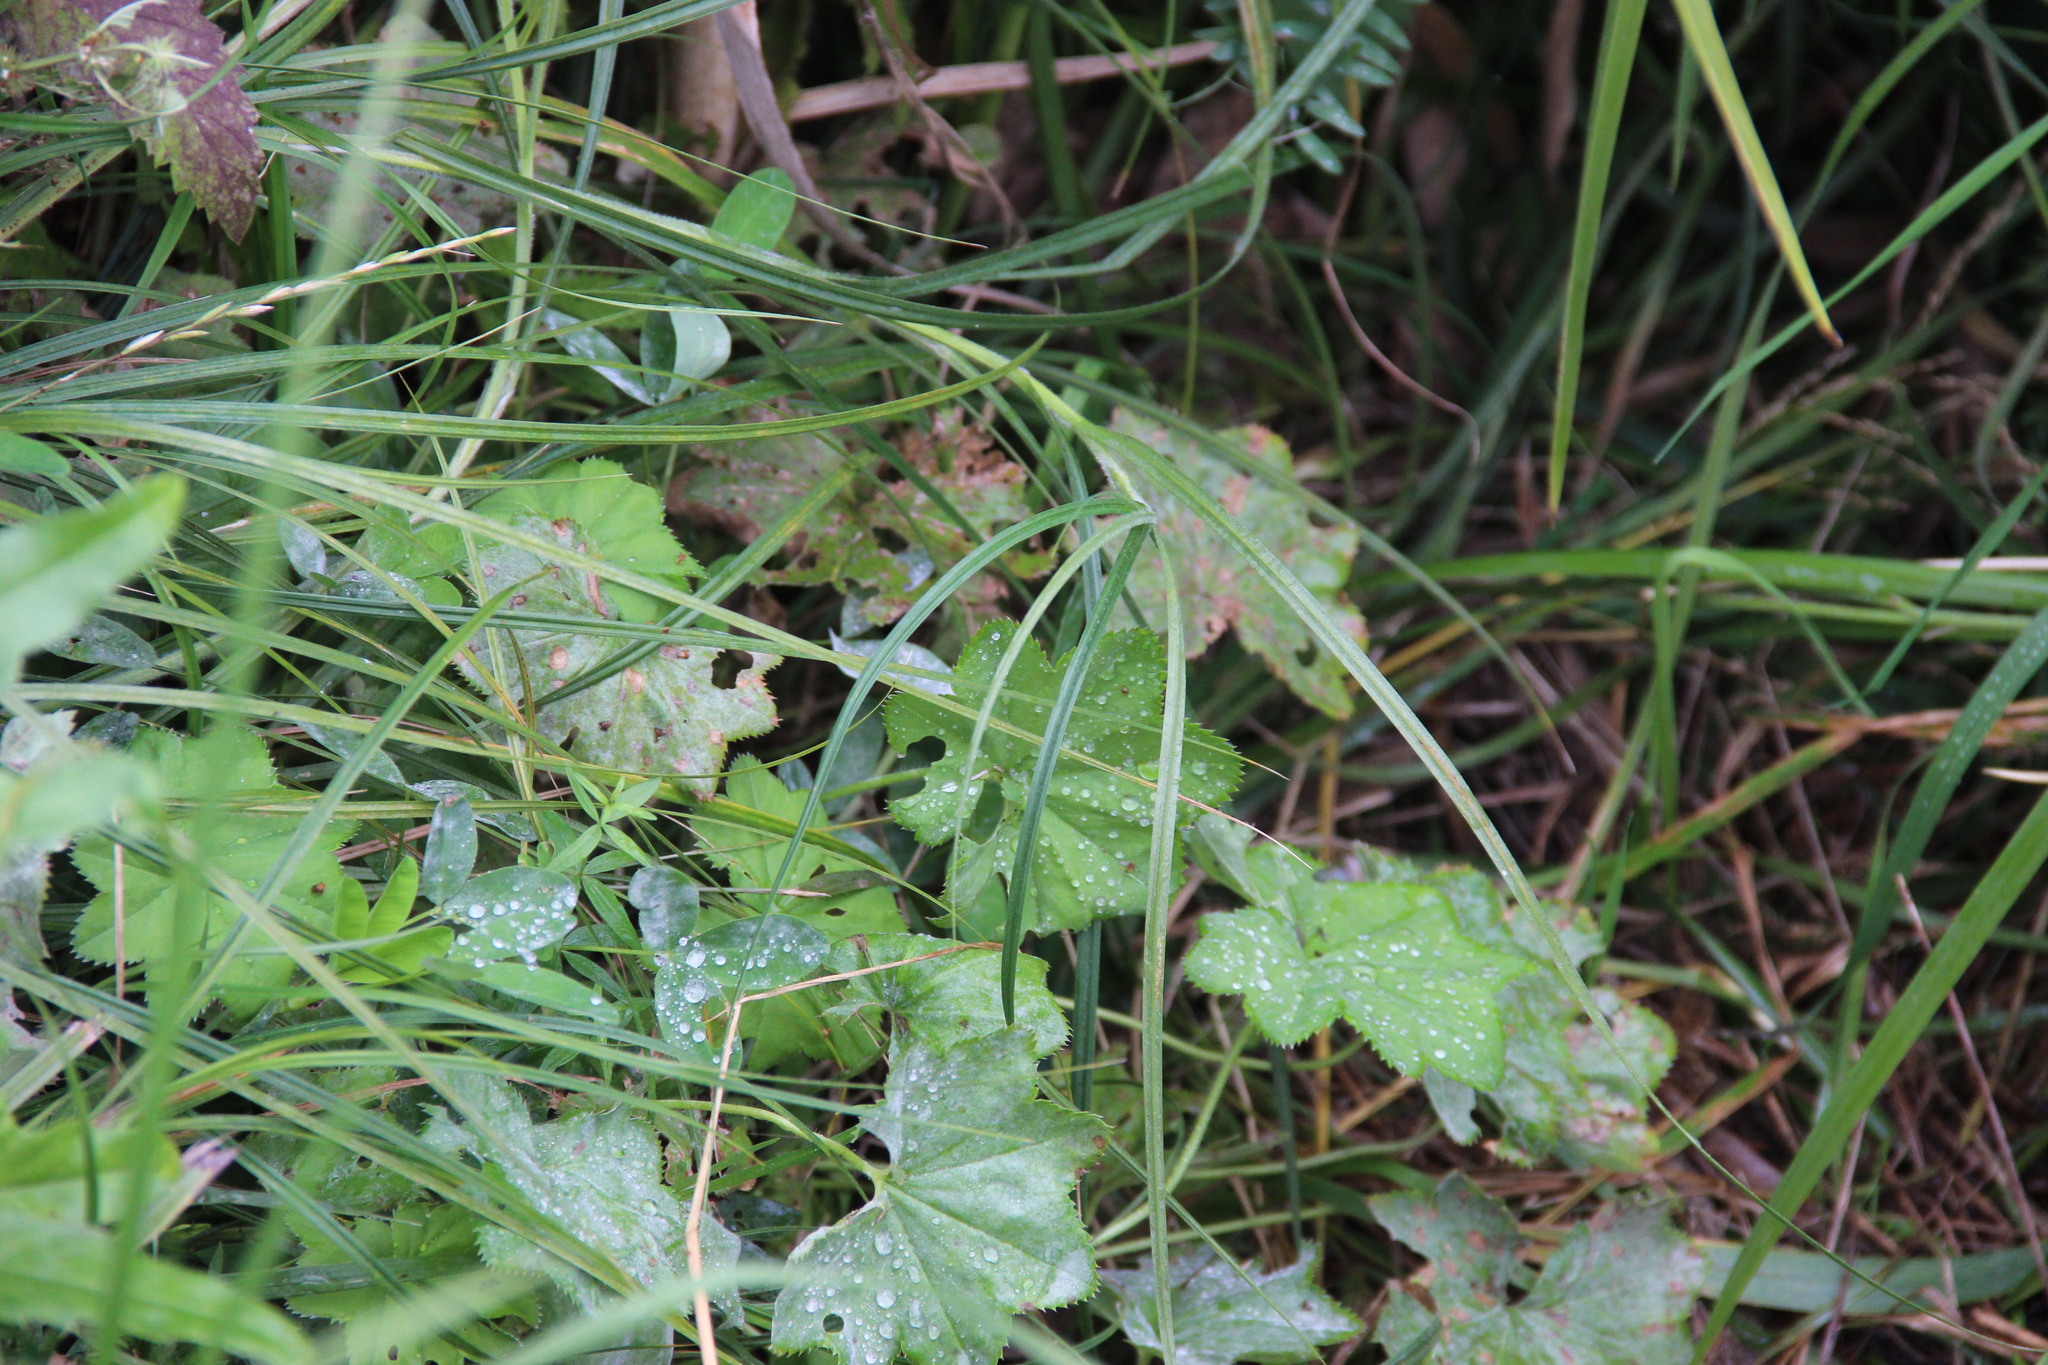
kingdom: Plantae
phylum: Tracheophyta
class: Liliopsida
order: Poales
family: Cyperaceae
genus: Carex
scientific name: Carex hirta
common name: Hairy sedge
